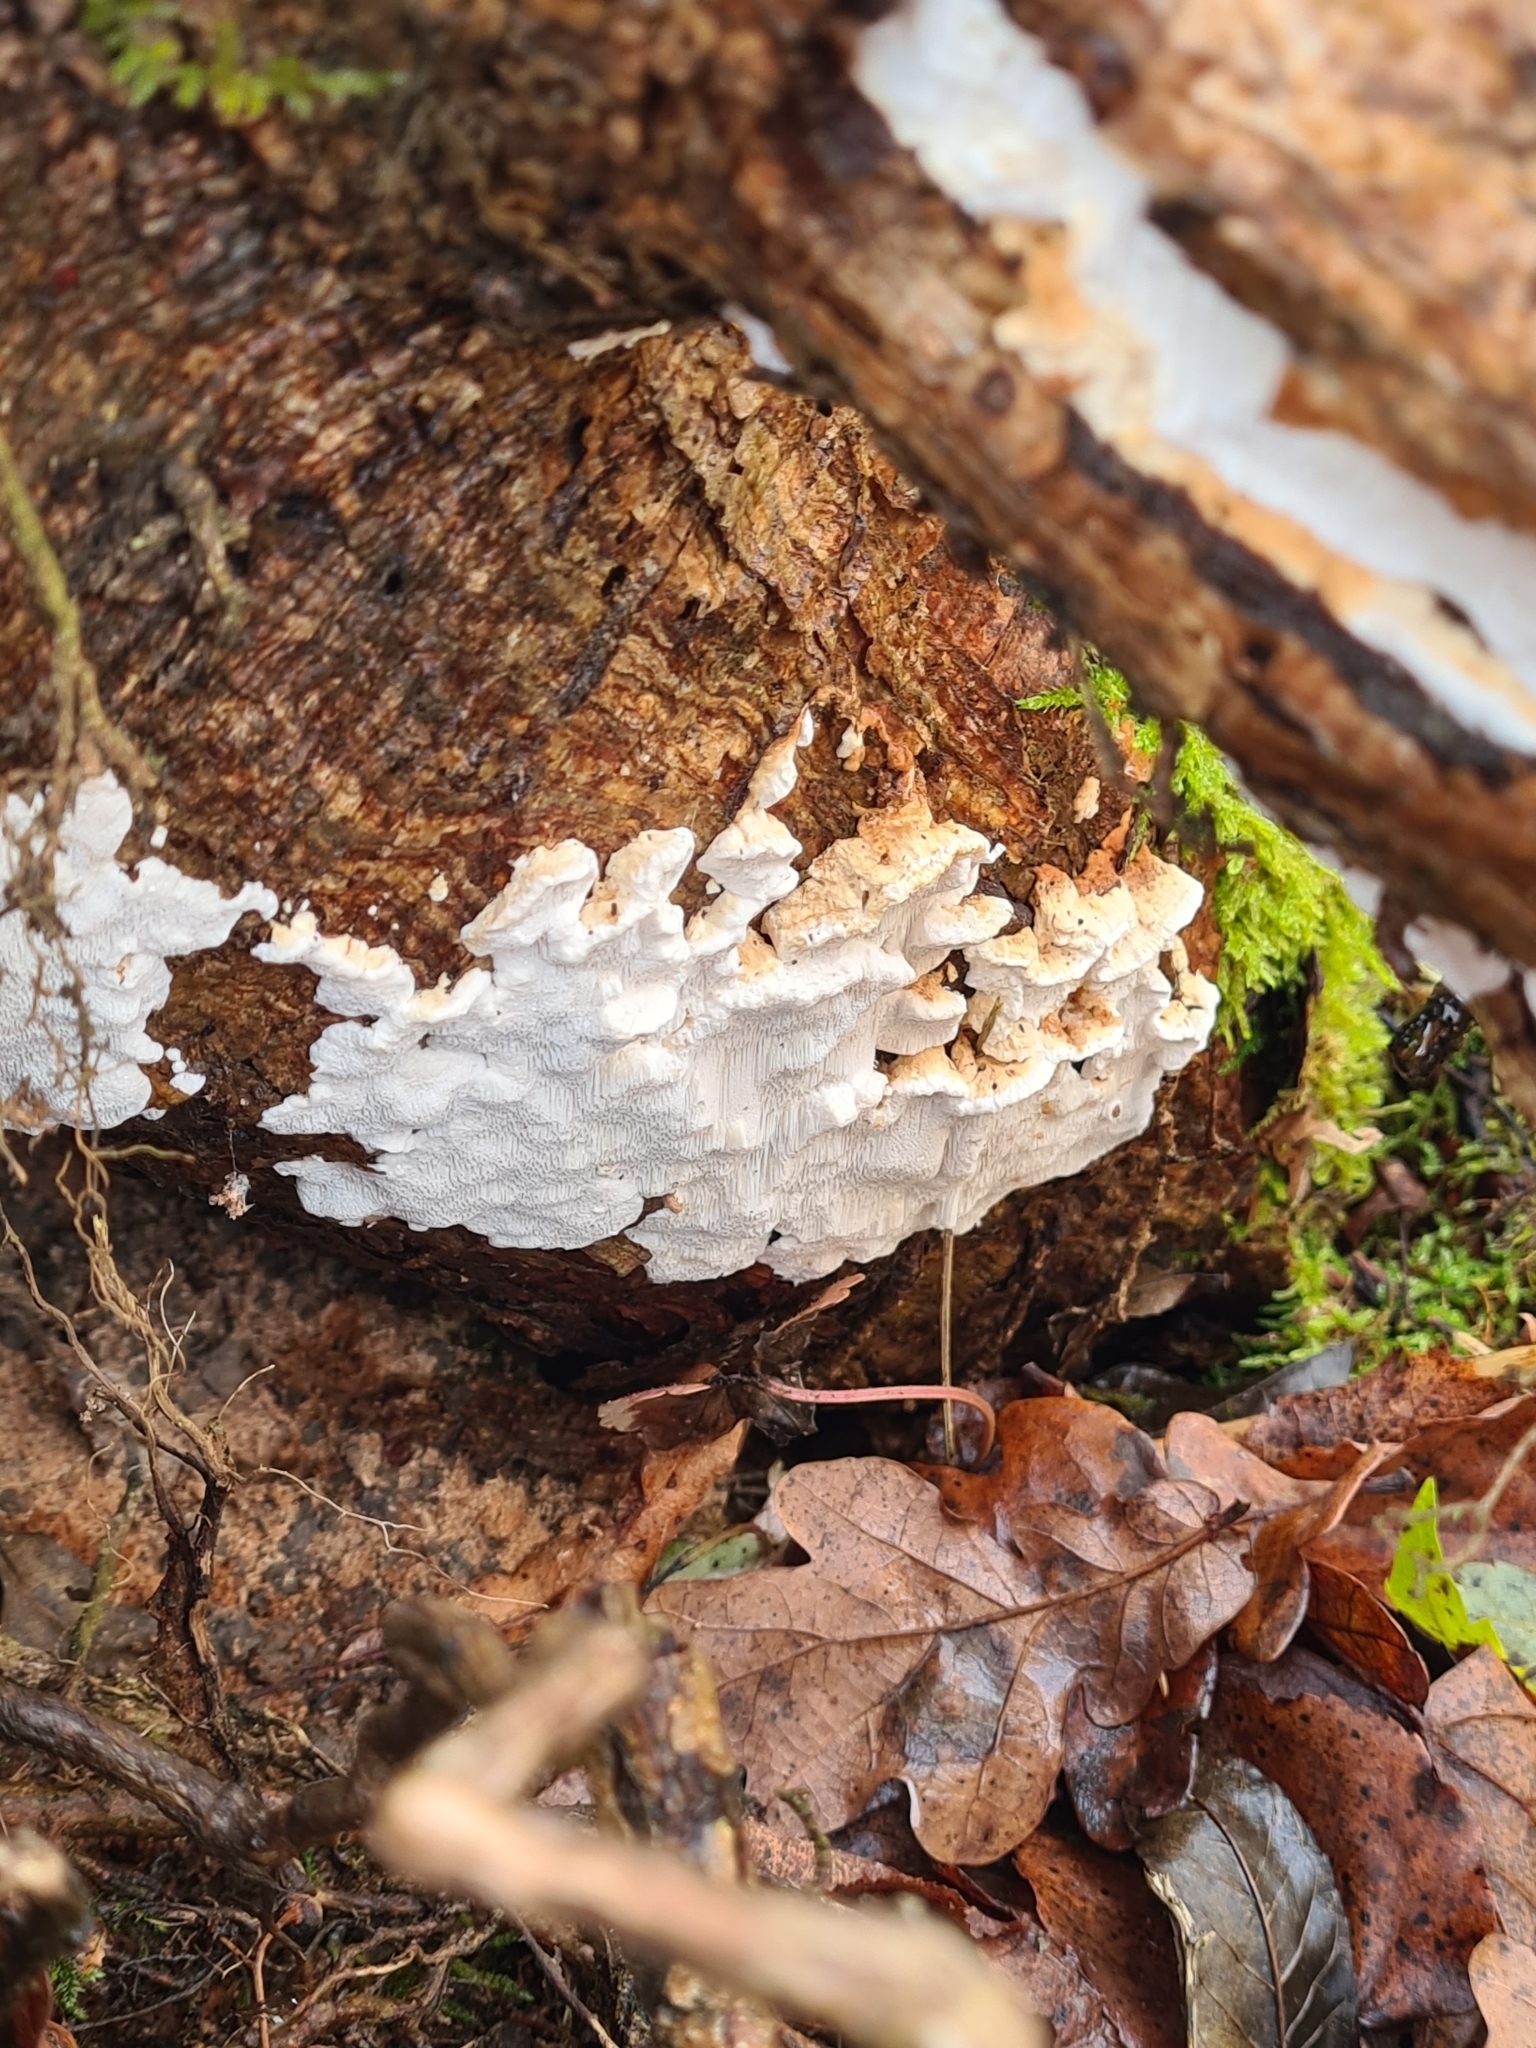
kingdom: Fungi
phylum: Basidiomycota
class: Agaricomycetes
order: Polyporales
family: Fomitopsidaceae
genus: Neoantrodia
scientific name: Neoantrodia serialis
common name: Serried porecrust
